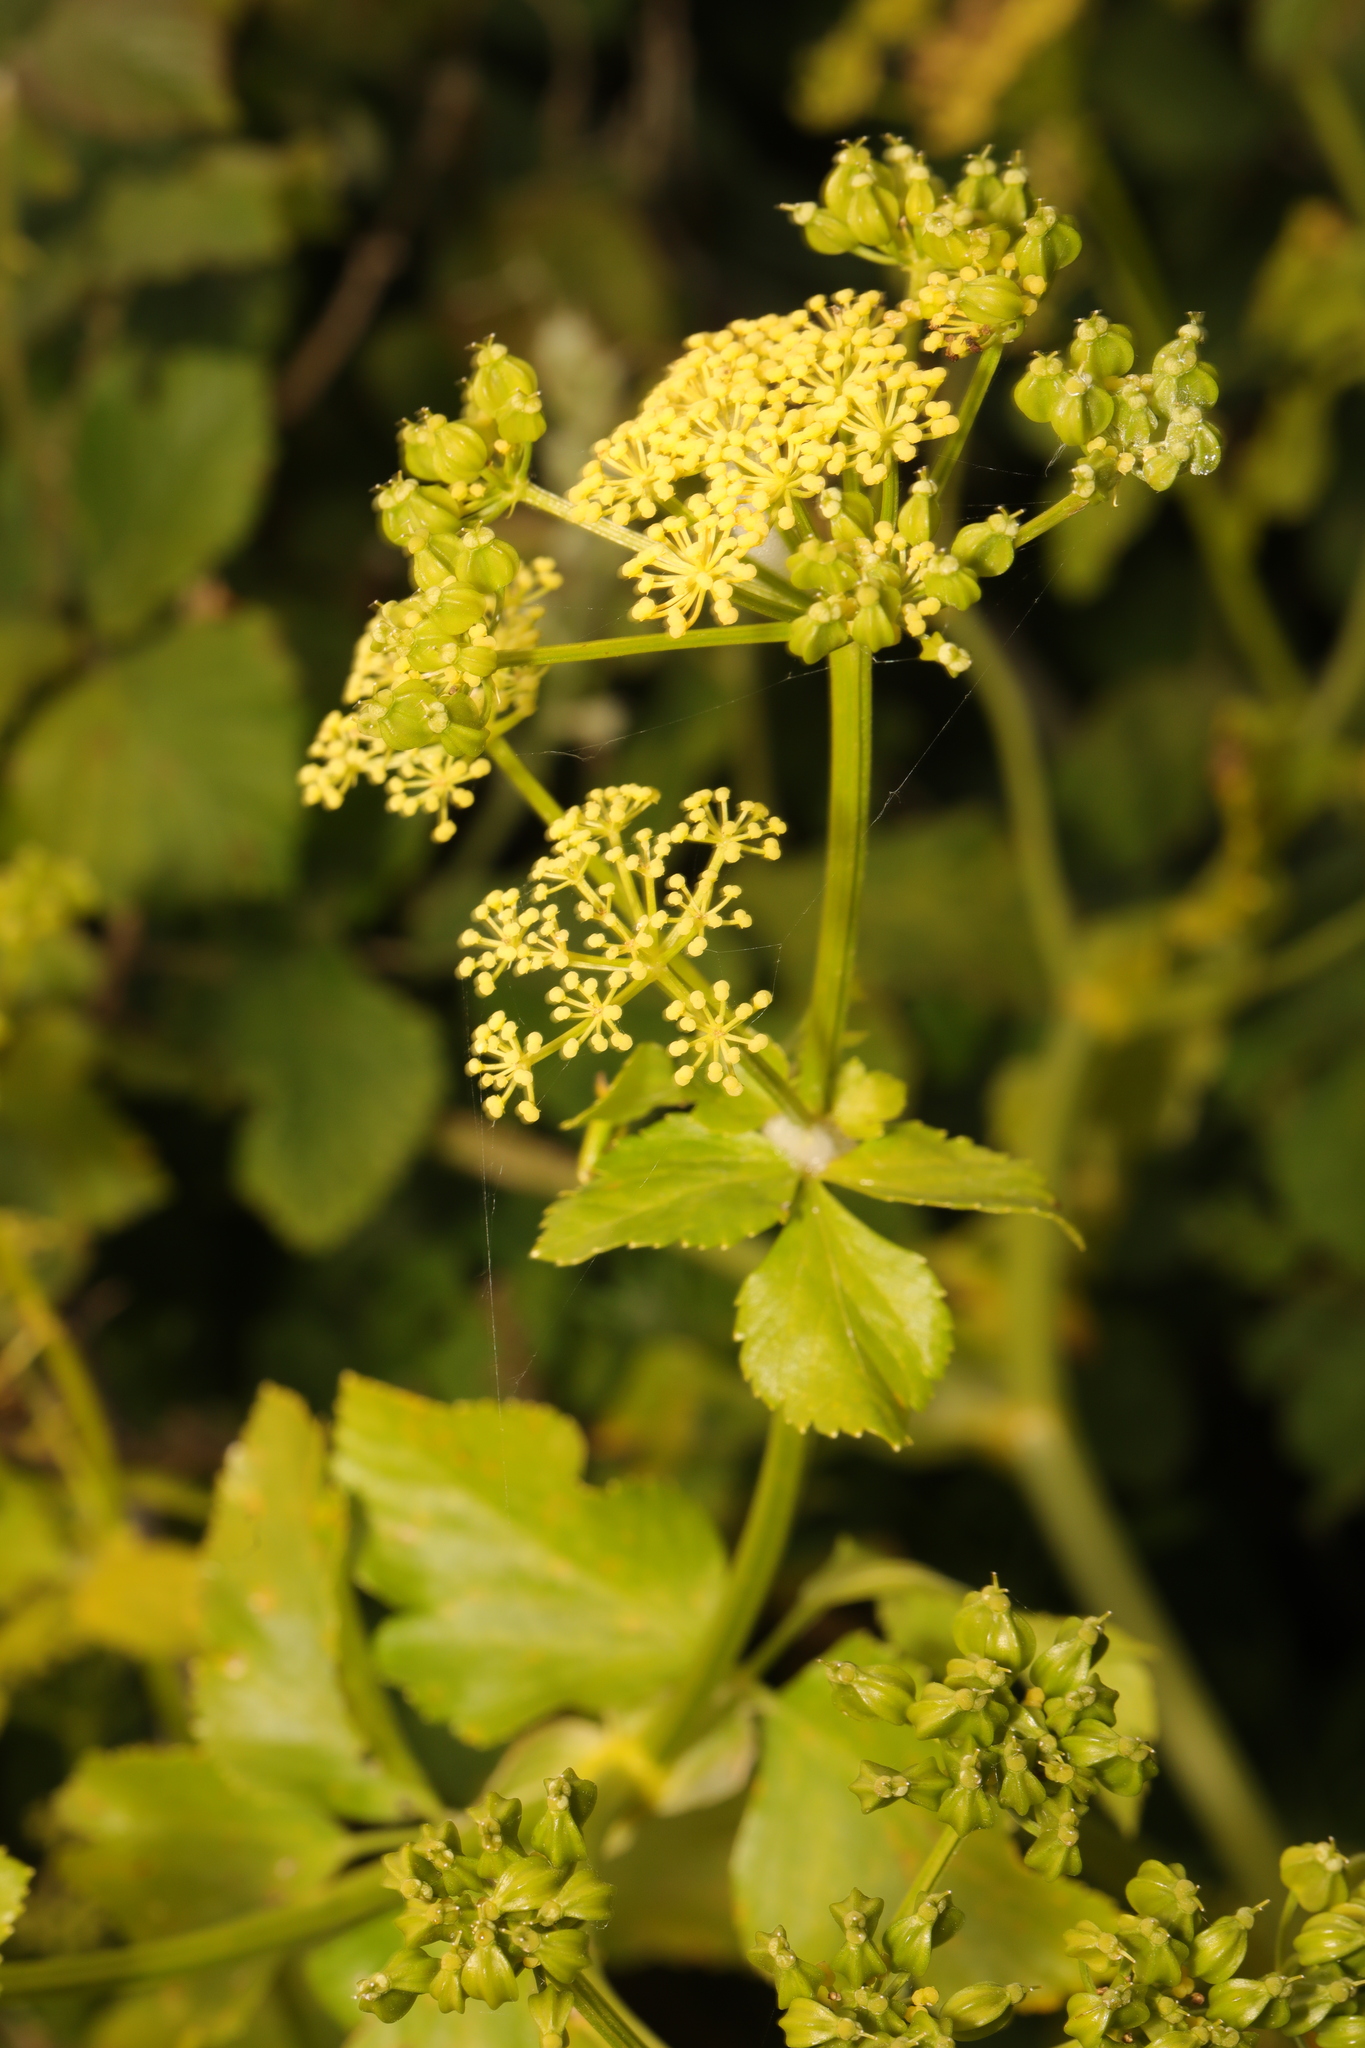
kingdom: Plantae
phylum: Tracheophyta
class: Magnoliopsida
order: Apiales
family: Apiaceae
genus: Smyrnium
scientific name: Smyrnium olusatrum
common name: Alexanders
